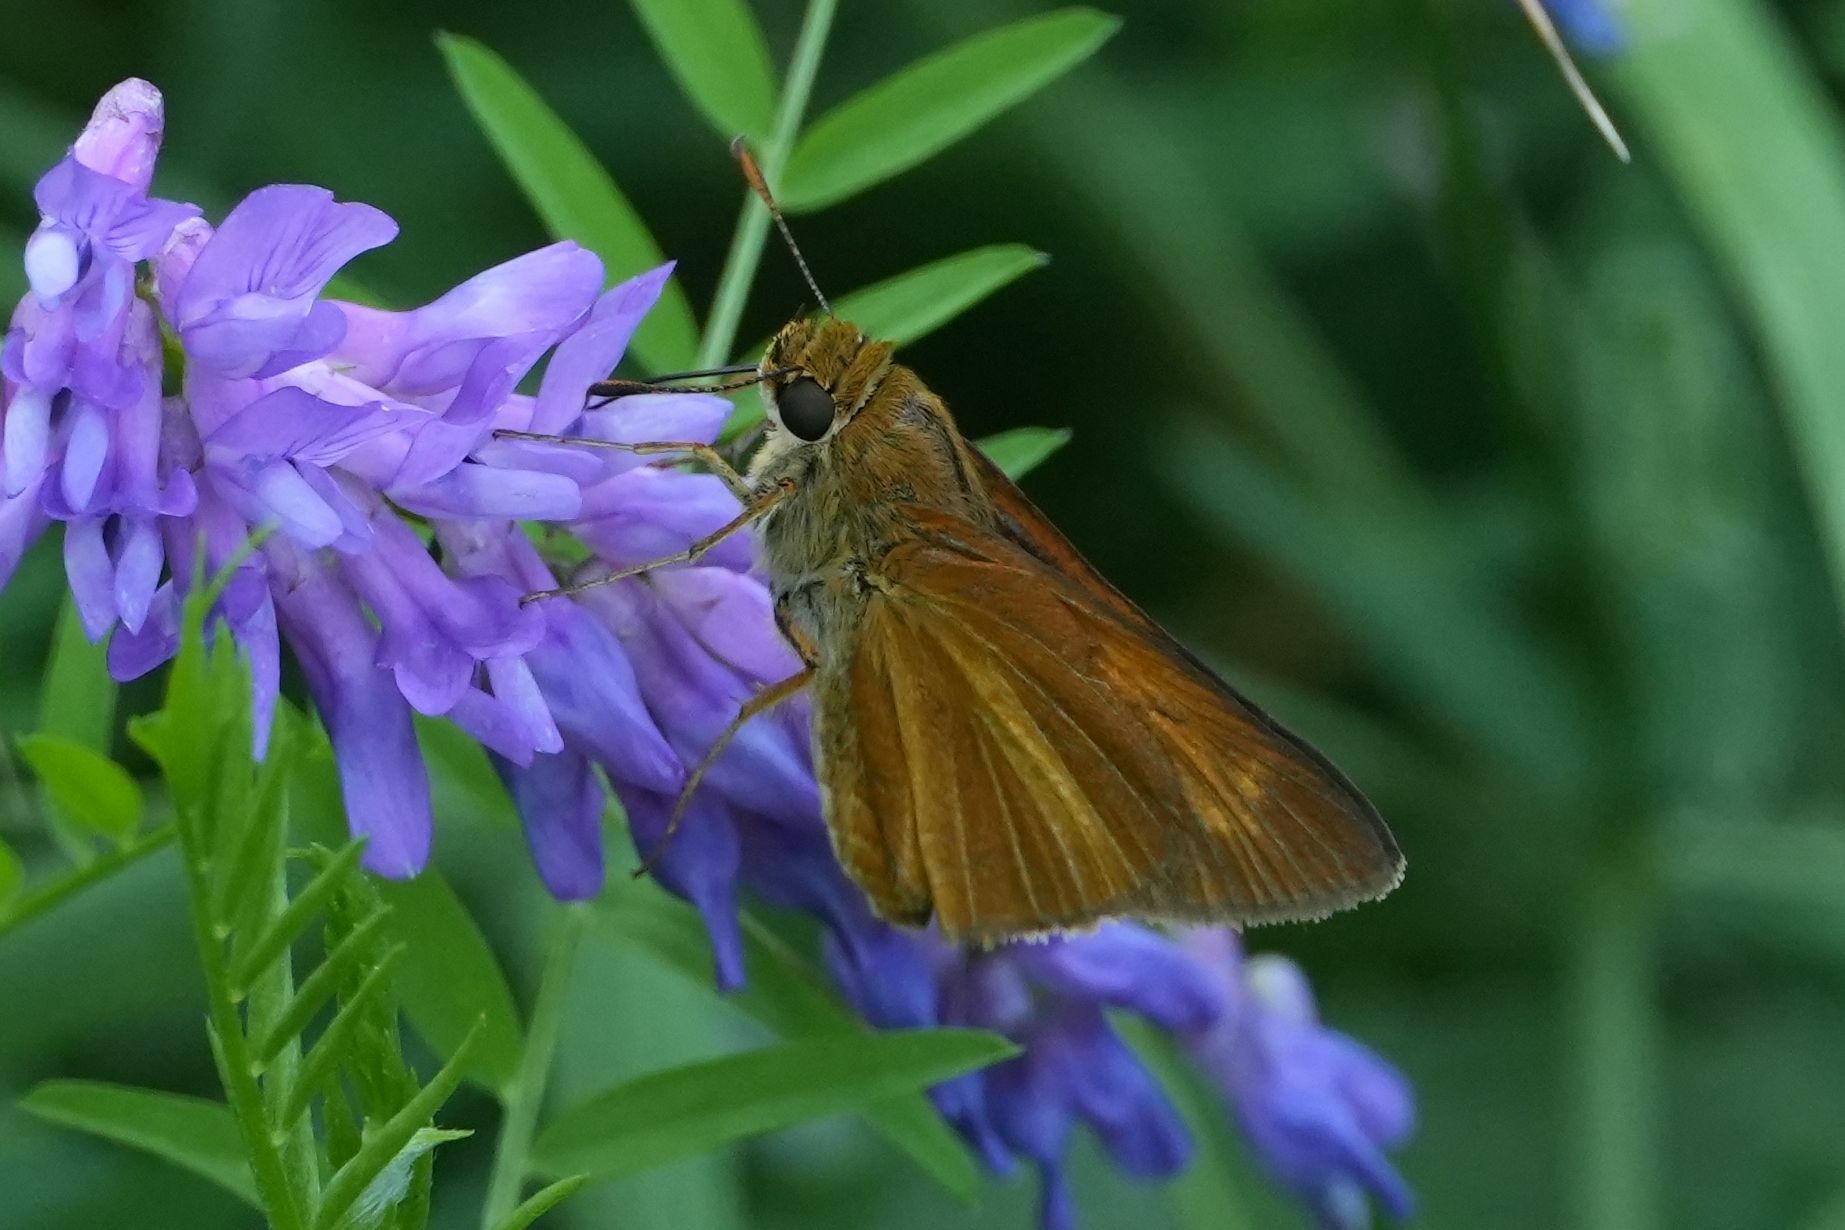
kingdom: Animalia
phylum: Arthropoda
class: Insecta
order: Lepidoptera
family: Hesperiidae
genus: Euphyes
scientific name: Euphyes dion
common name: Dion skipper
